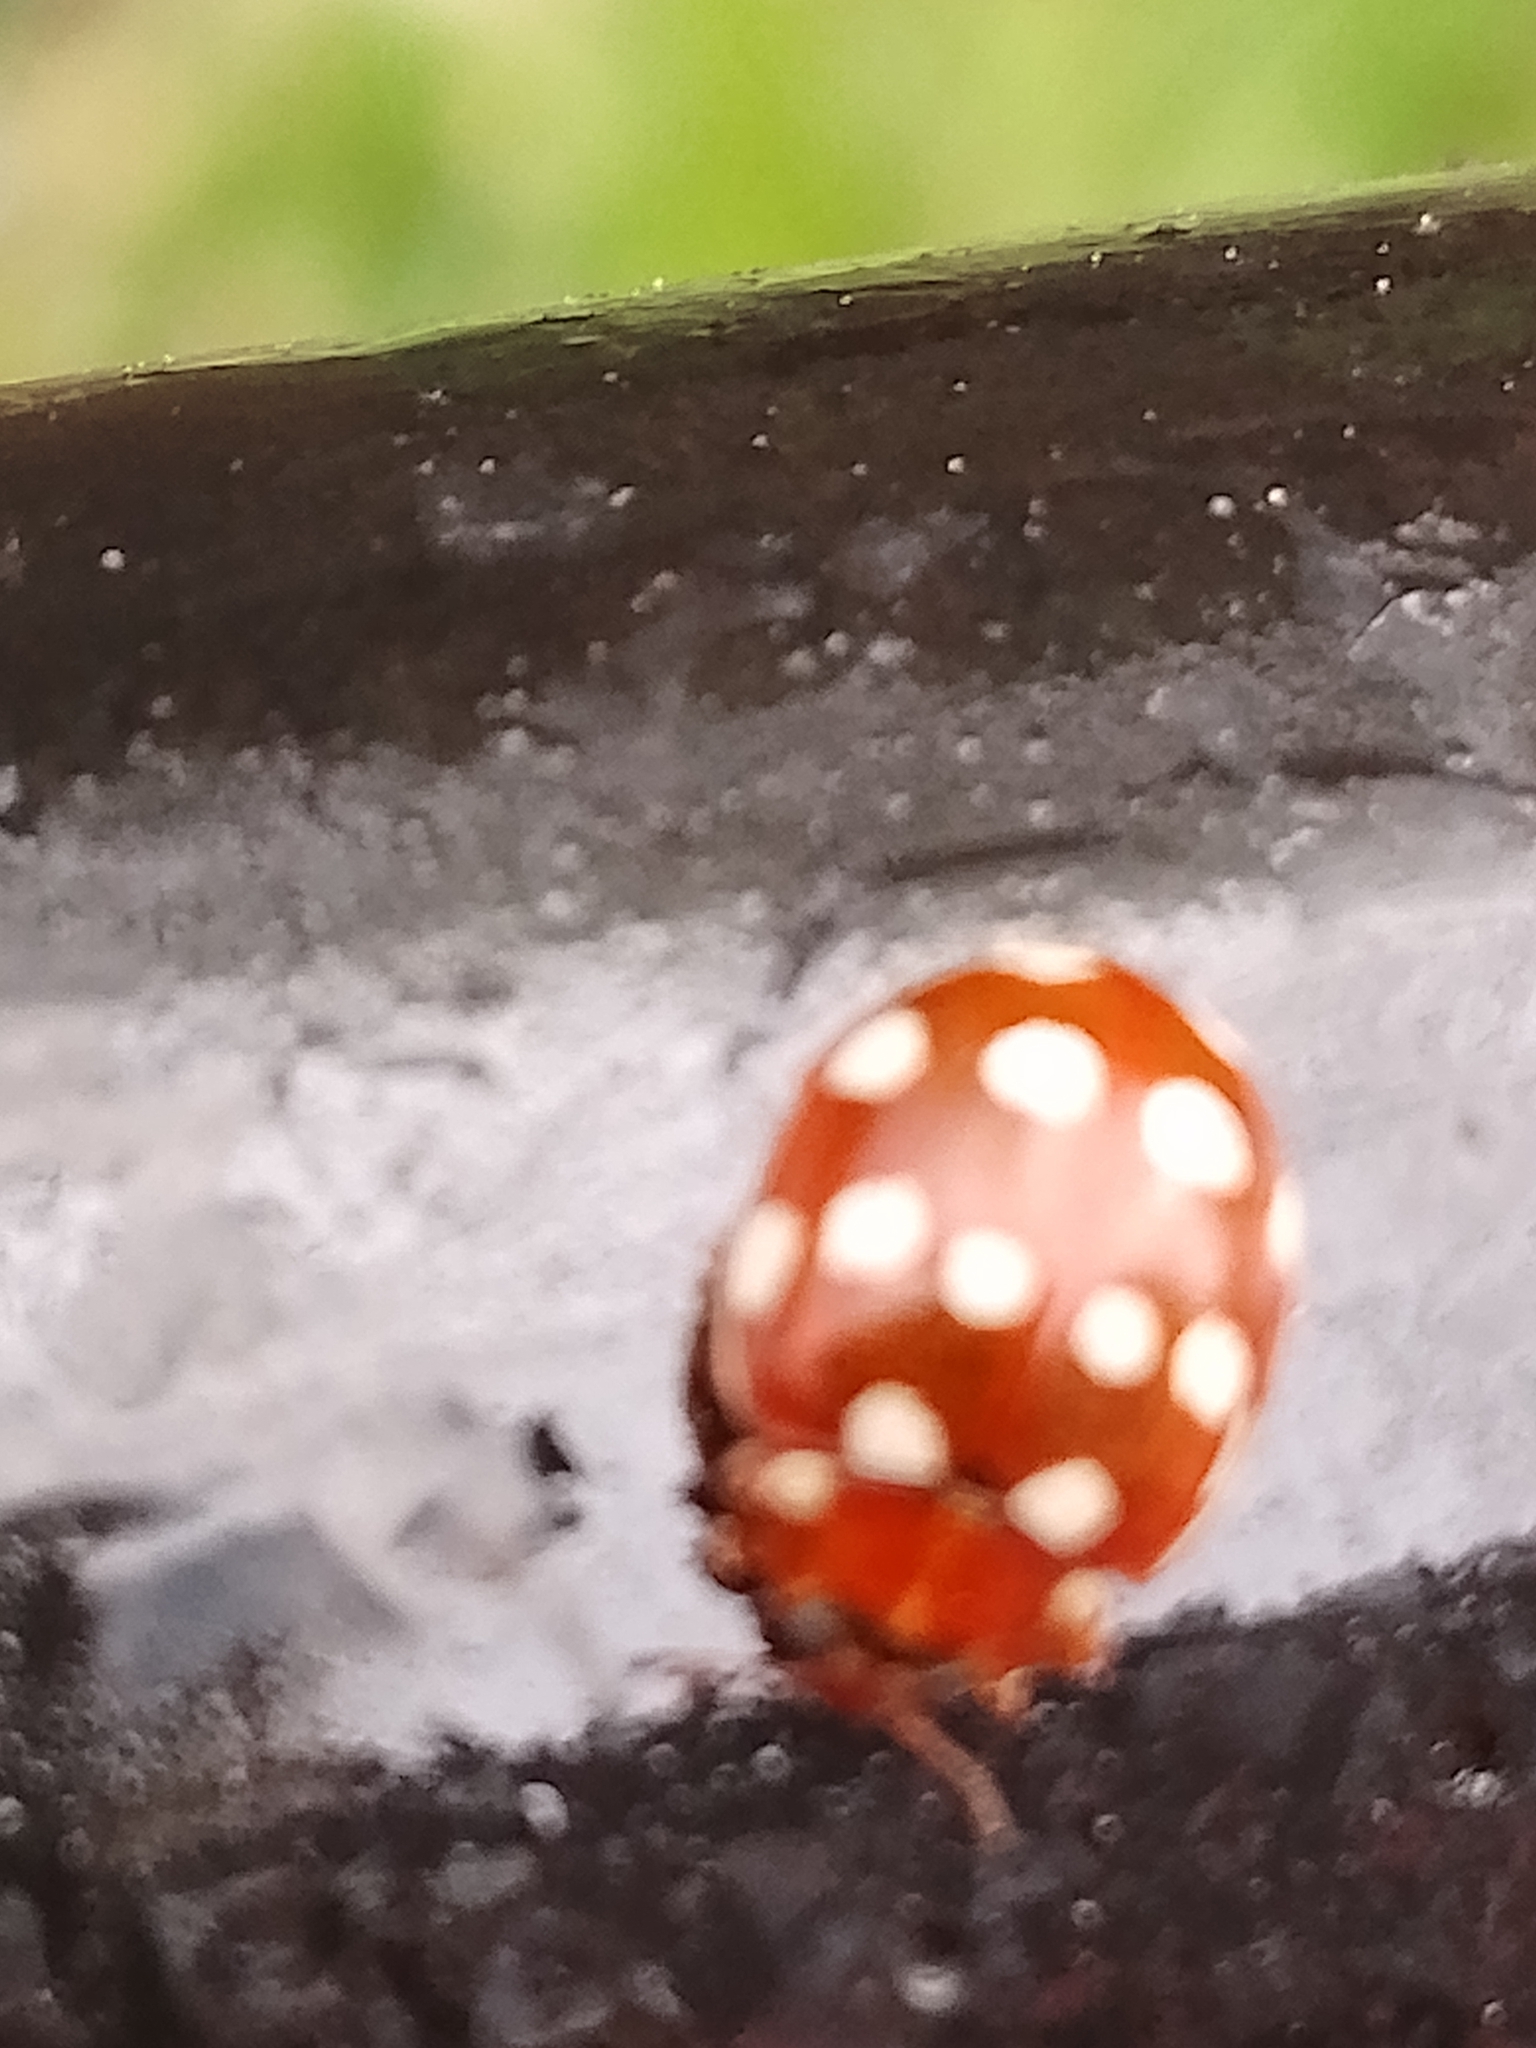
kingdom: Animalia
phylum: Arthropoda
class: Insecta
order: Coleoptera
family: Coccinellidae
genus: Calvia
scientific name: Calvia quatuordecimguttata
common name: Cream-spot ladybird
